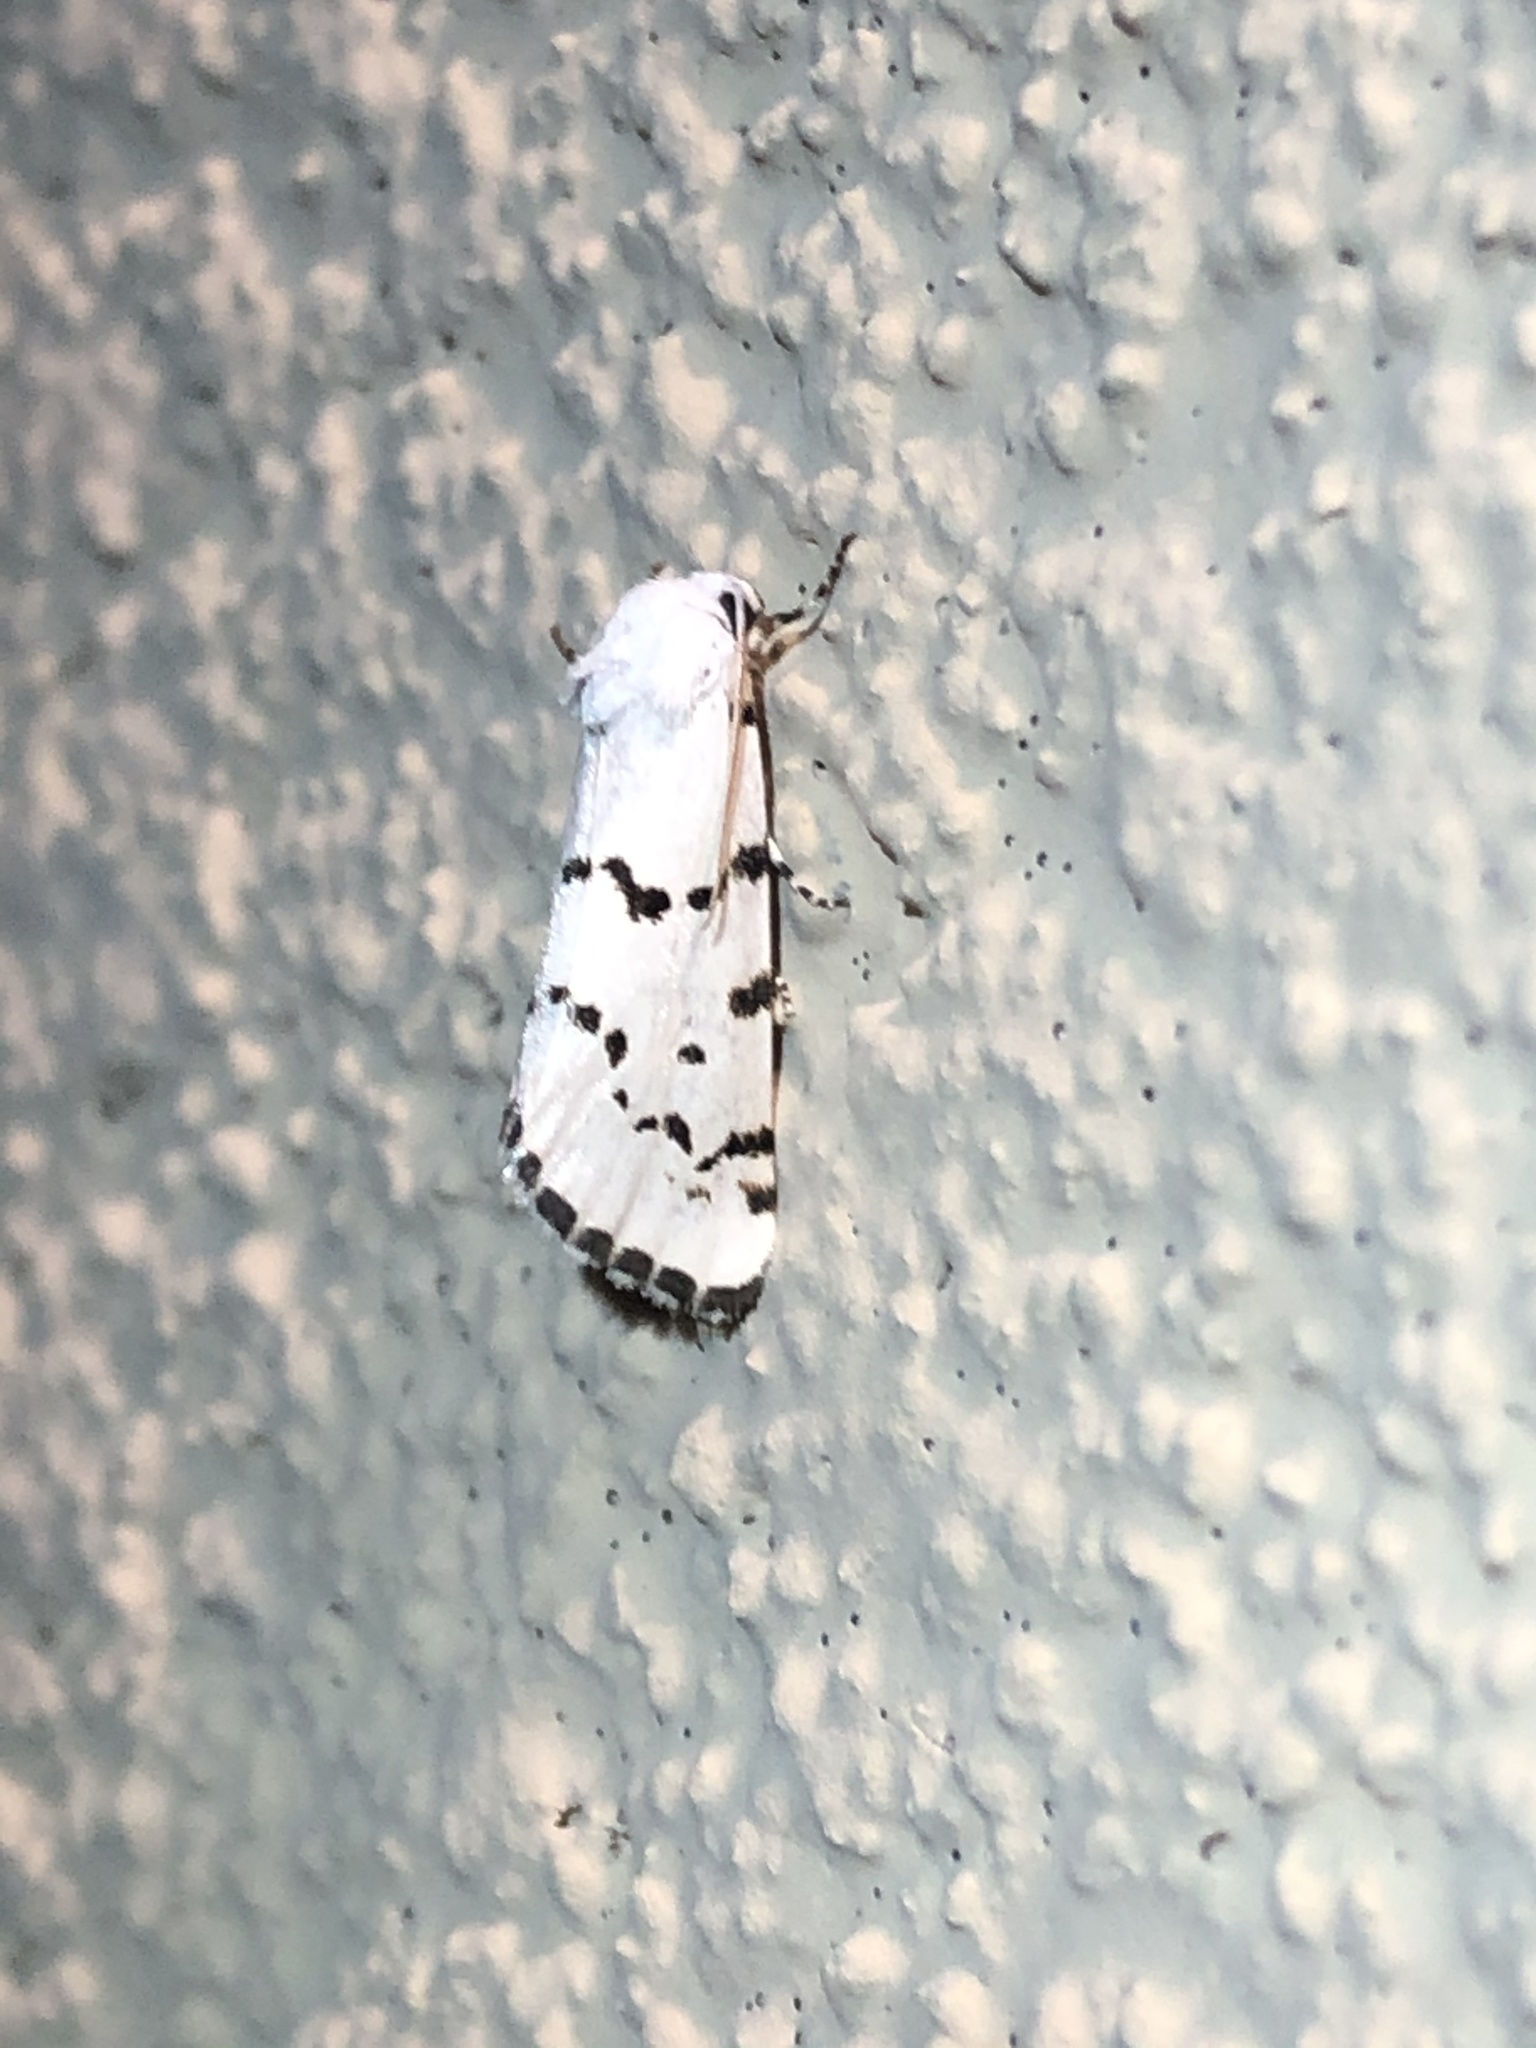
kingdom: Animalia
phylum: Arthropoda
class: Insecta
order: Lepidoptera
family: Noctuidae
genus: Grotella
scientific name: Grotella binda
